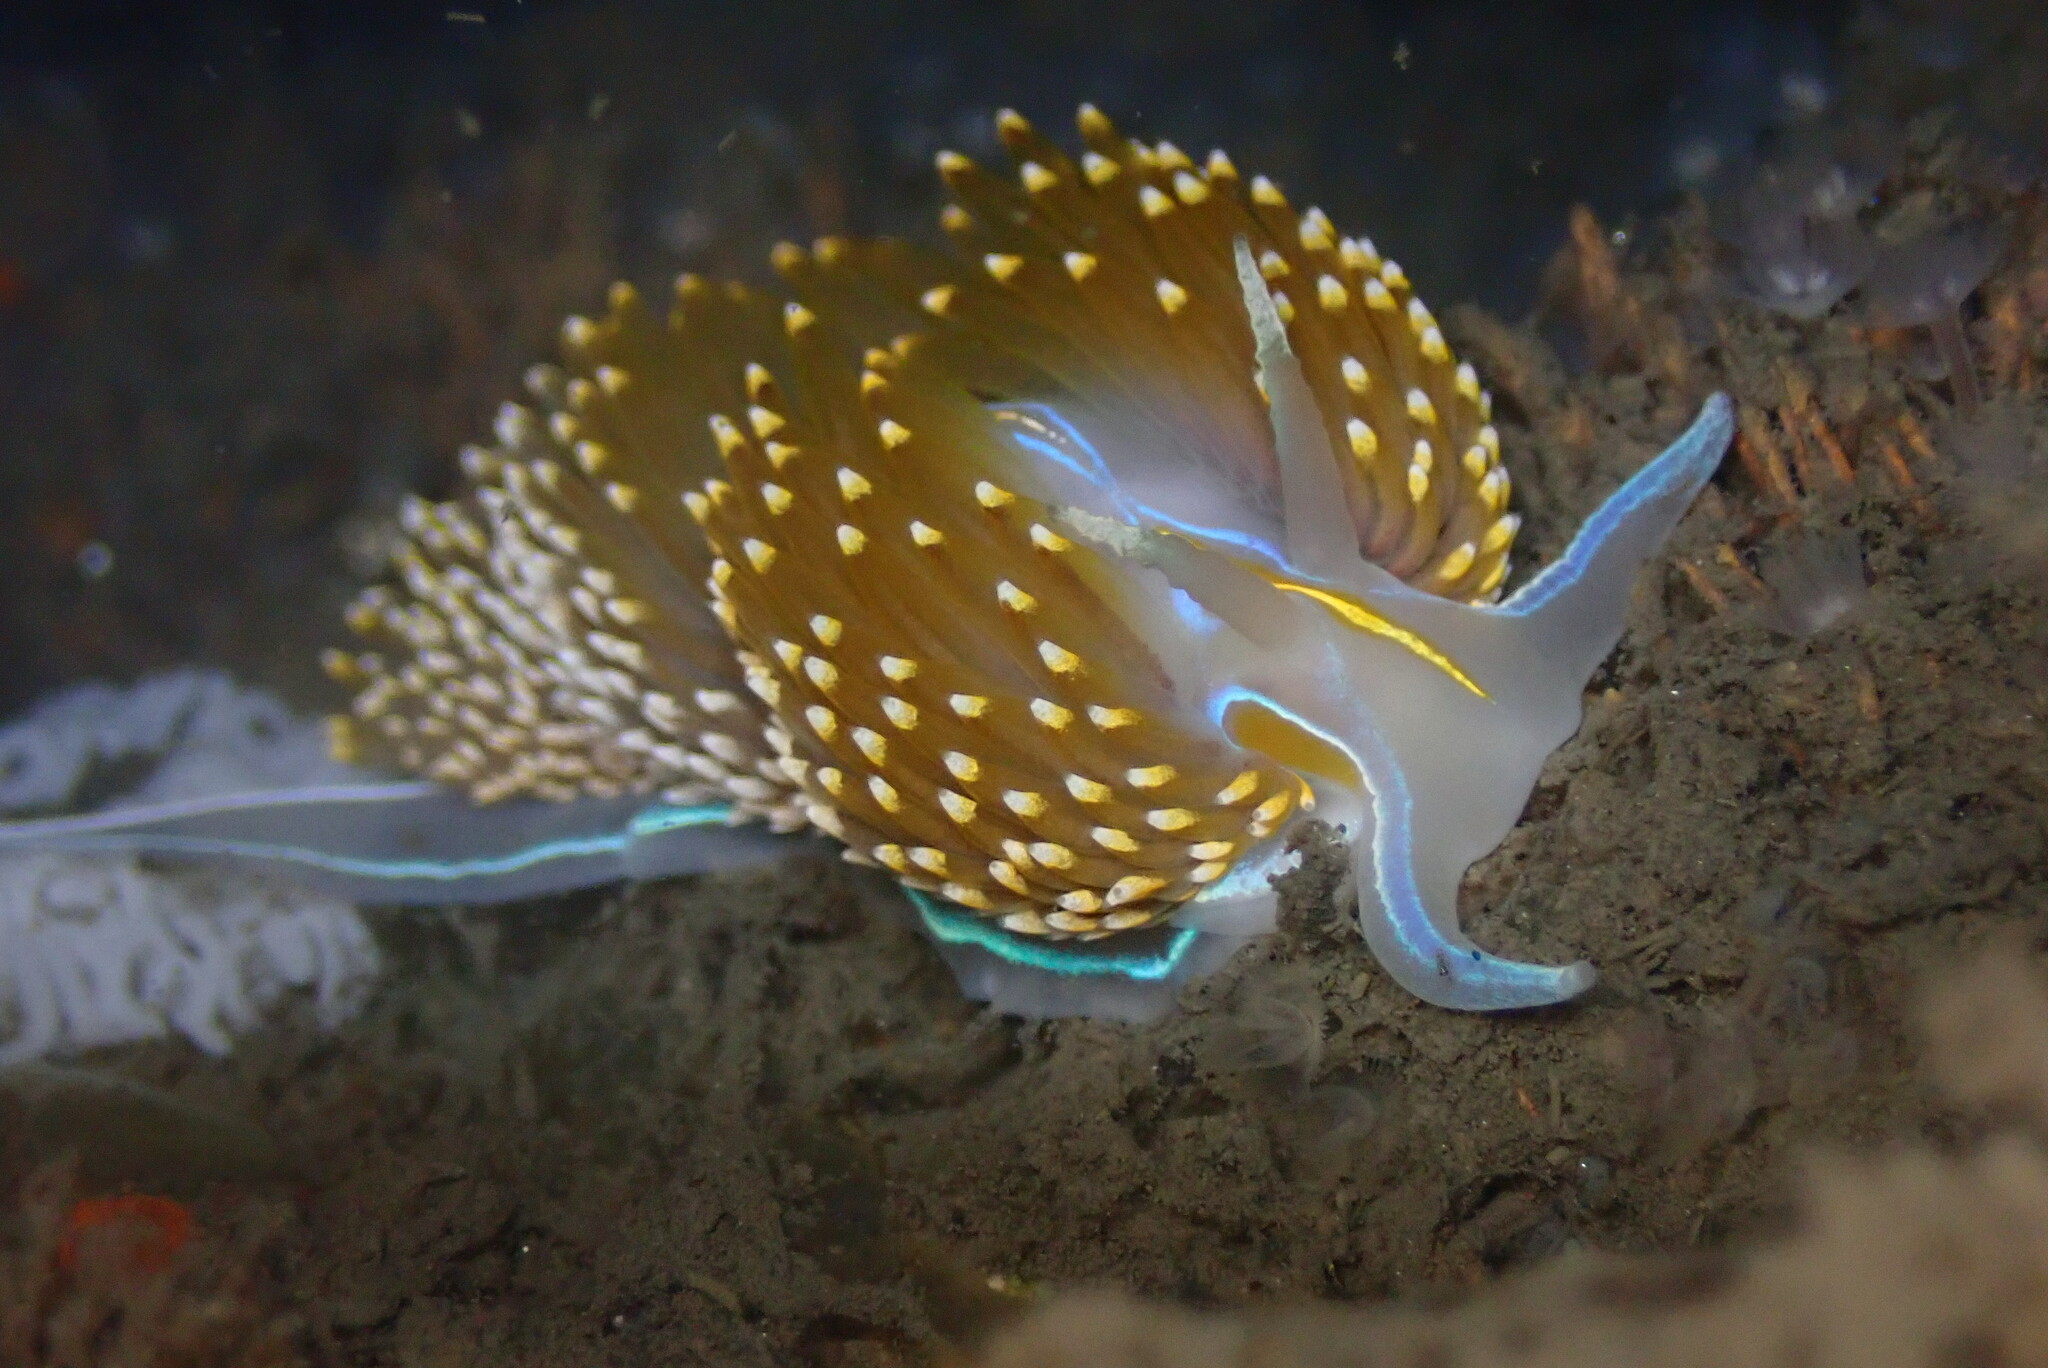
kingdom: Animalia
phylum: Mollusca
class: Gastropoda
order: Nudibranchia
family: Myrrhinidae
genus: Hermissenda
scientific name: Hermissenda opalescens
